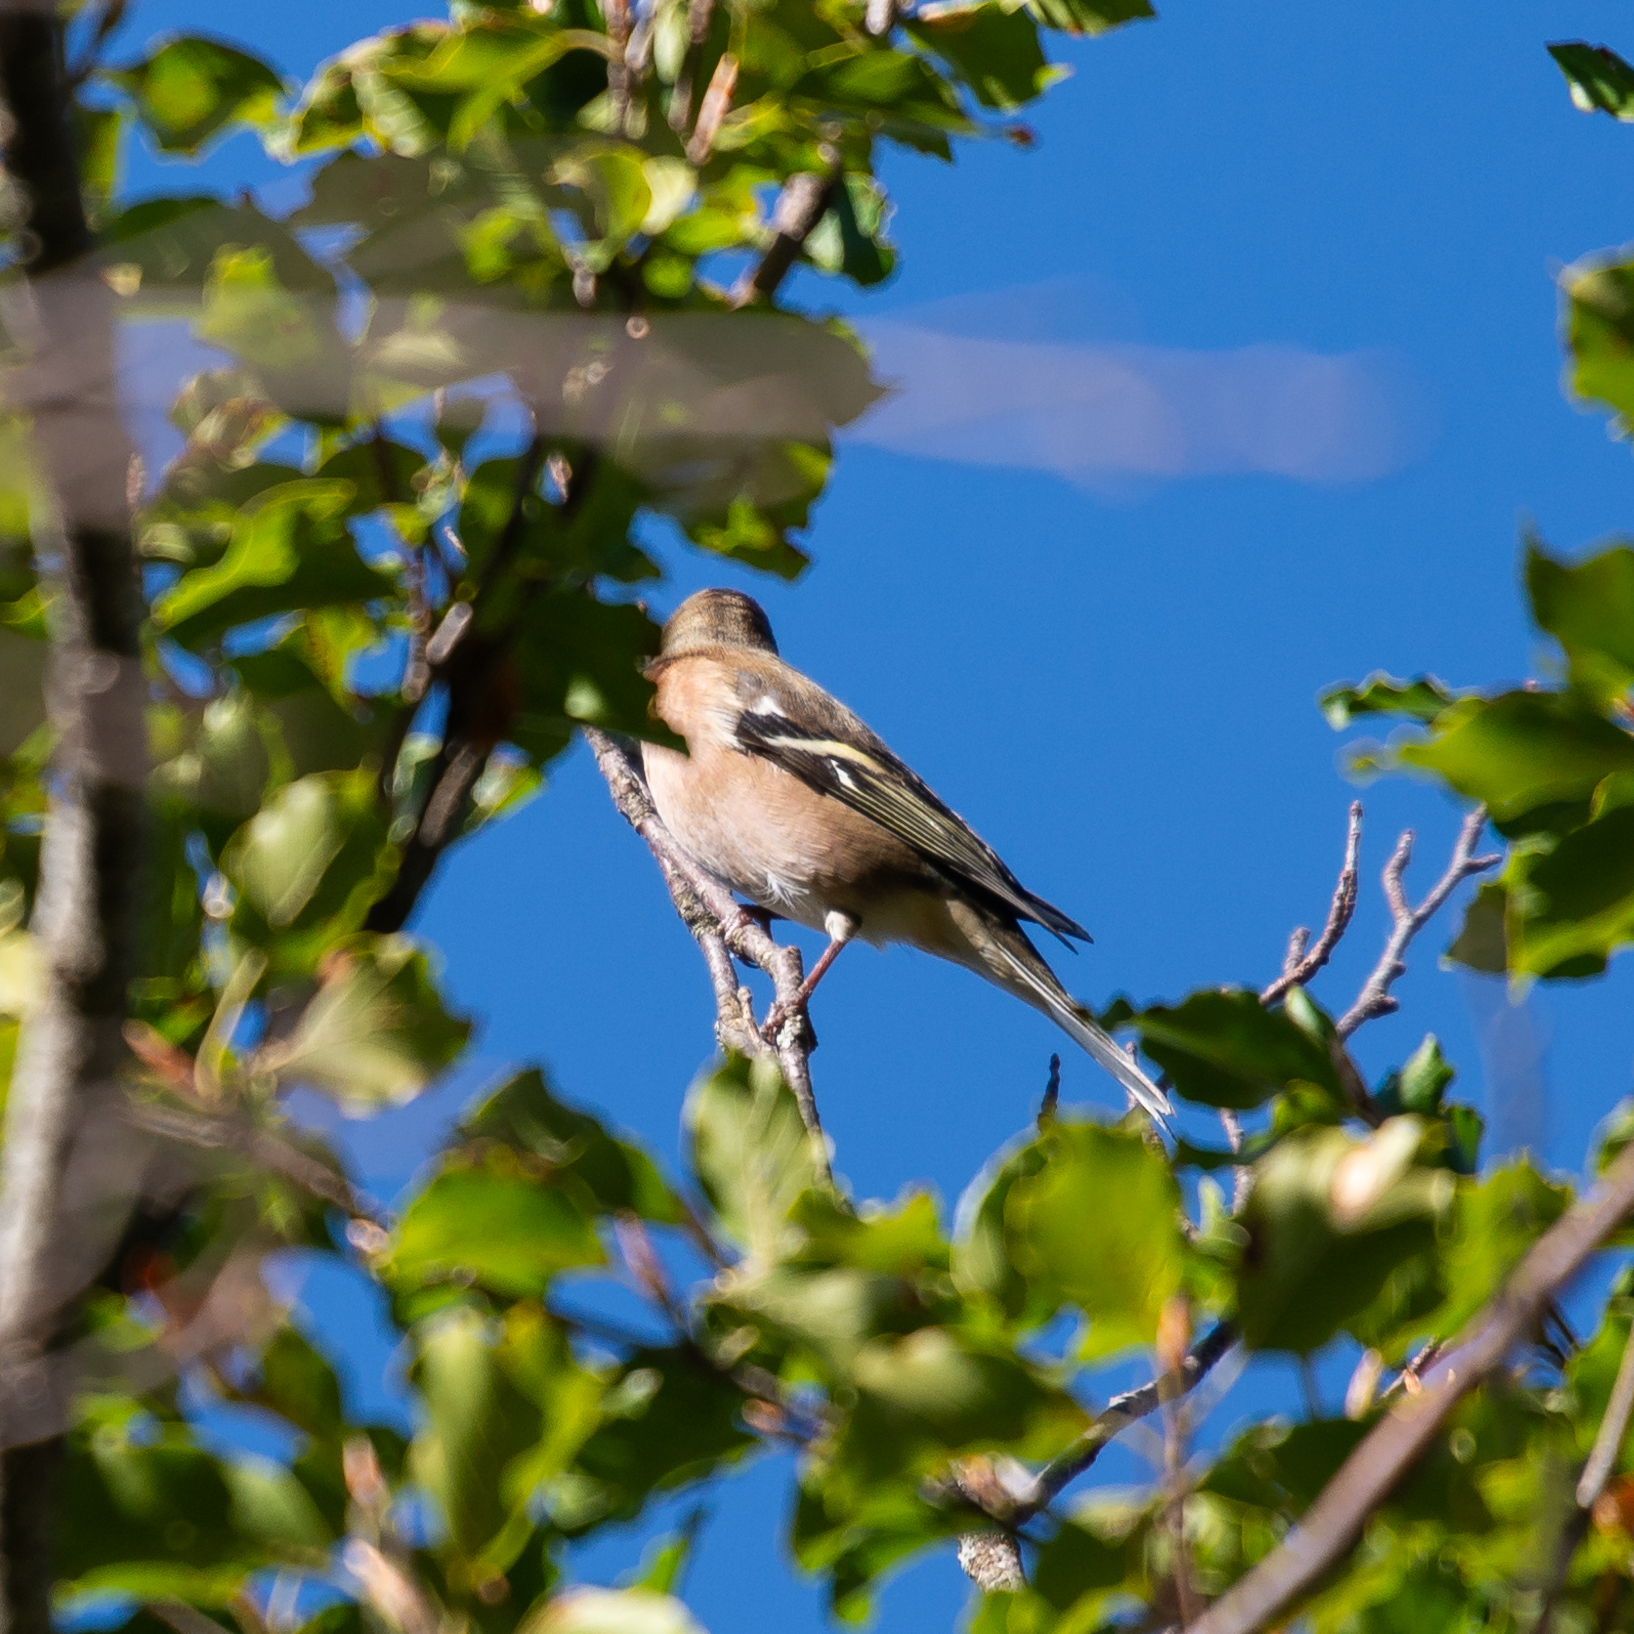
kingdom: Animalia
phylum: Chordata
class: Aves
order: Passeriformes
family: Fringillidae
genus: Fringilla
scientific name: Fringilla coelebs
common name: Common chaffinch
